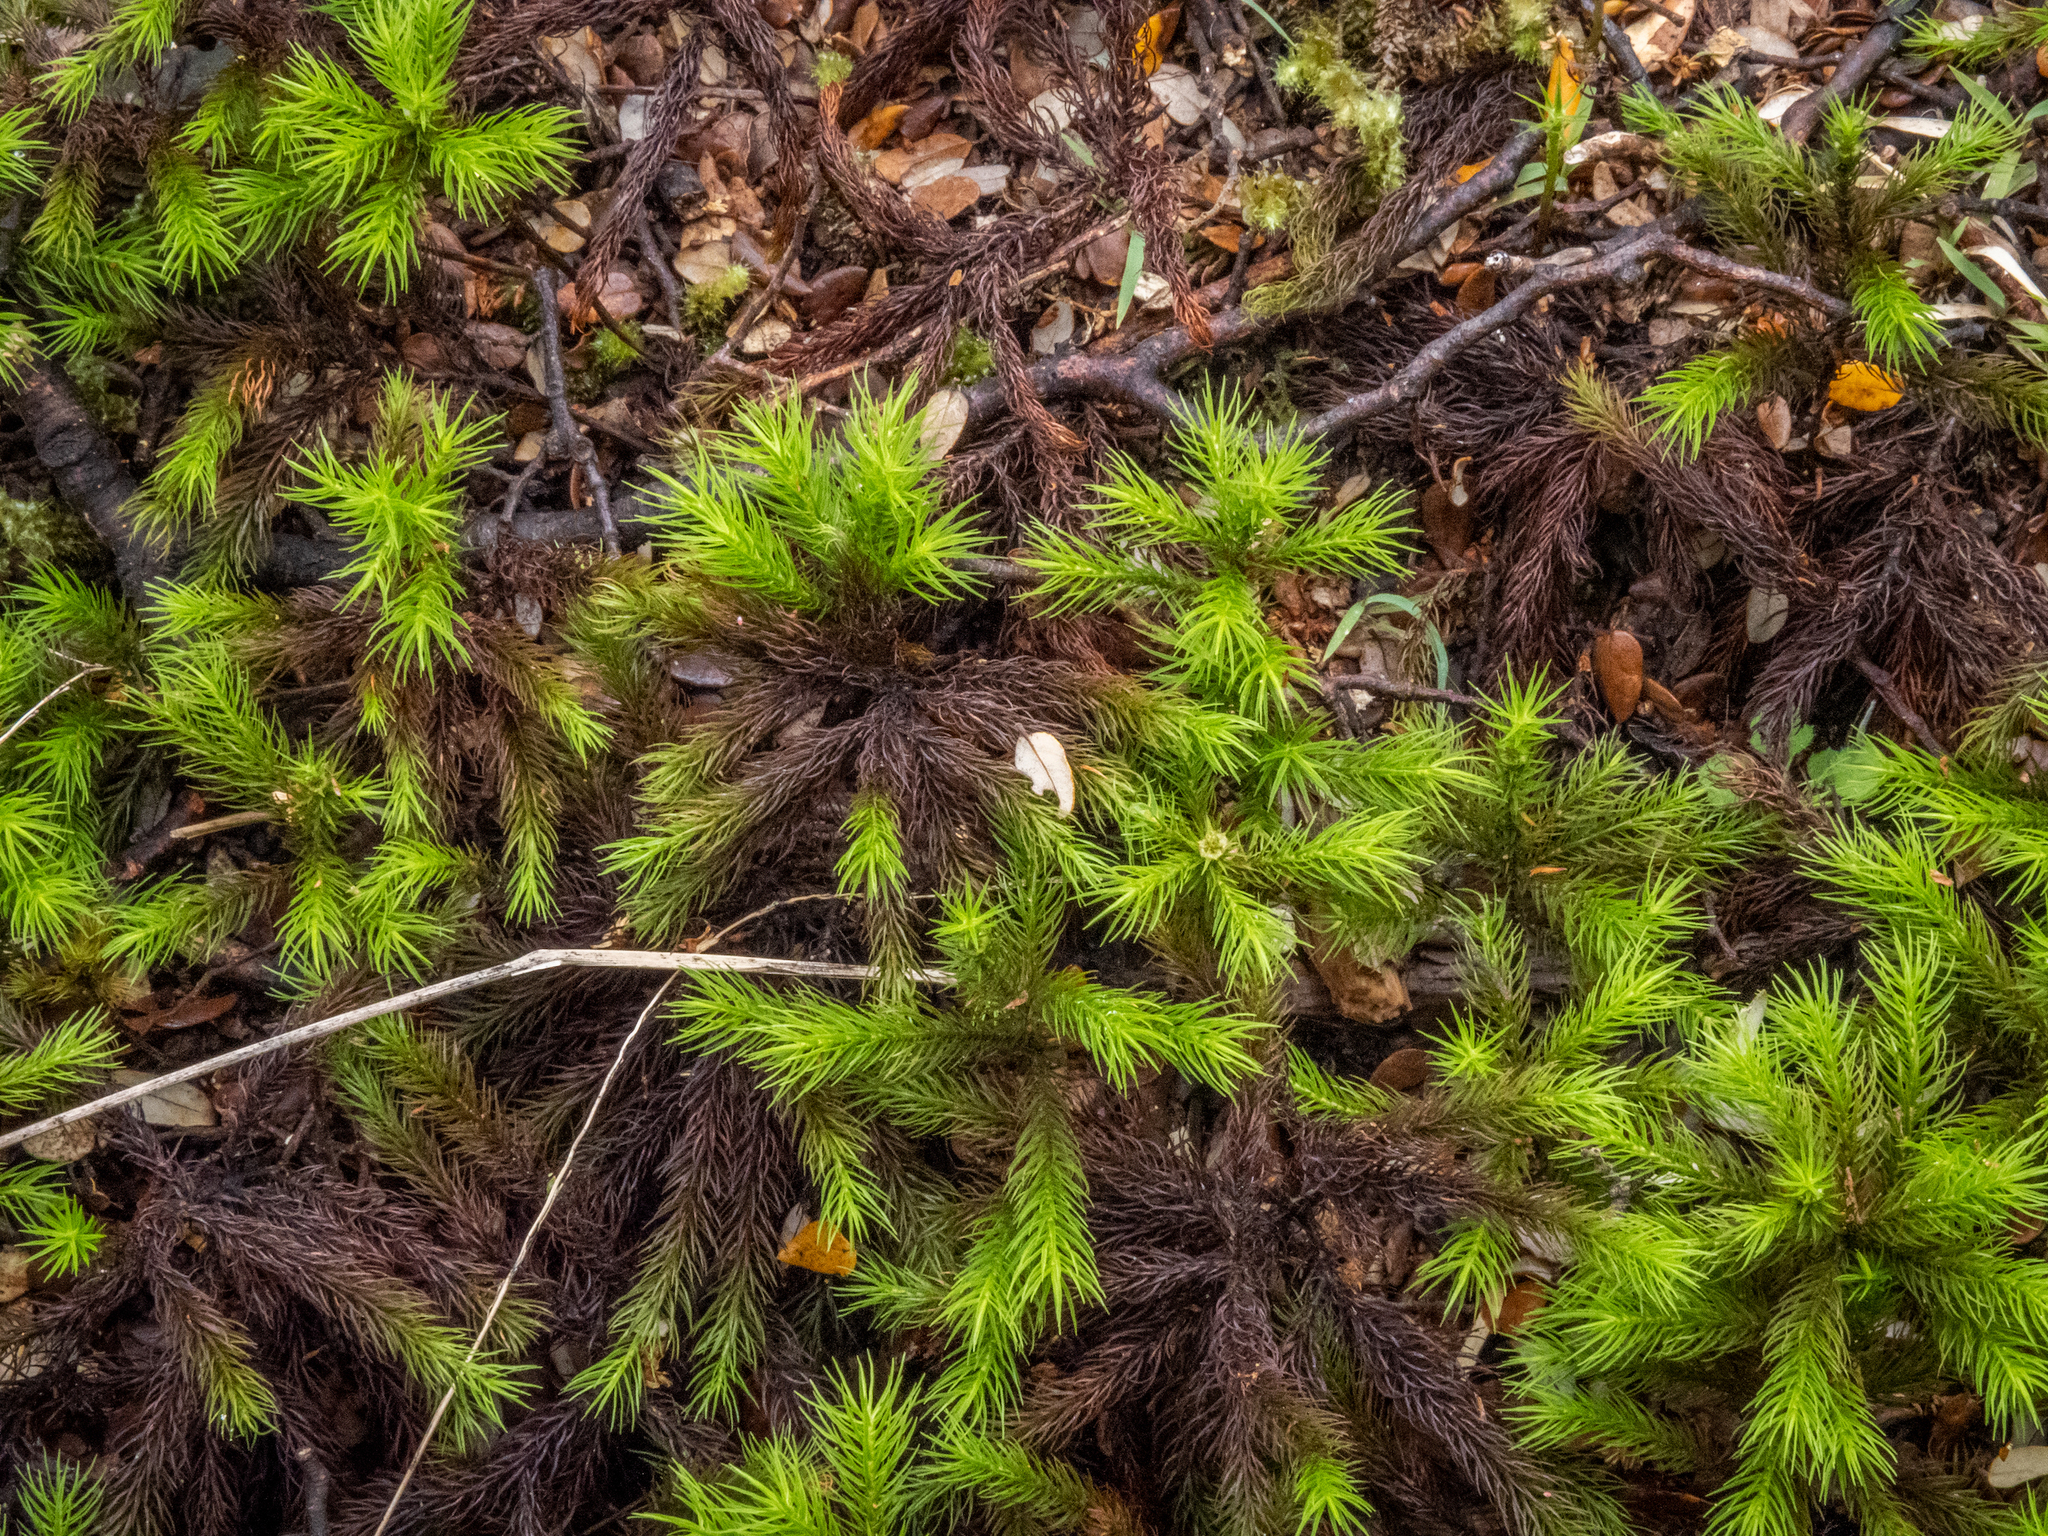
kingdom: Plantae
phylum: Bryophyta
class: Polytrichopsida
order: Polytrichales
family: Polytrichaceae
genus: Dendroligotrichum
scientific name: Dendroligotrichum tongariroense
